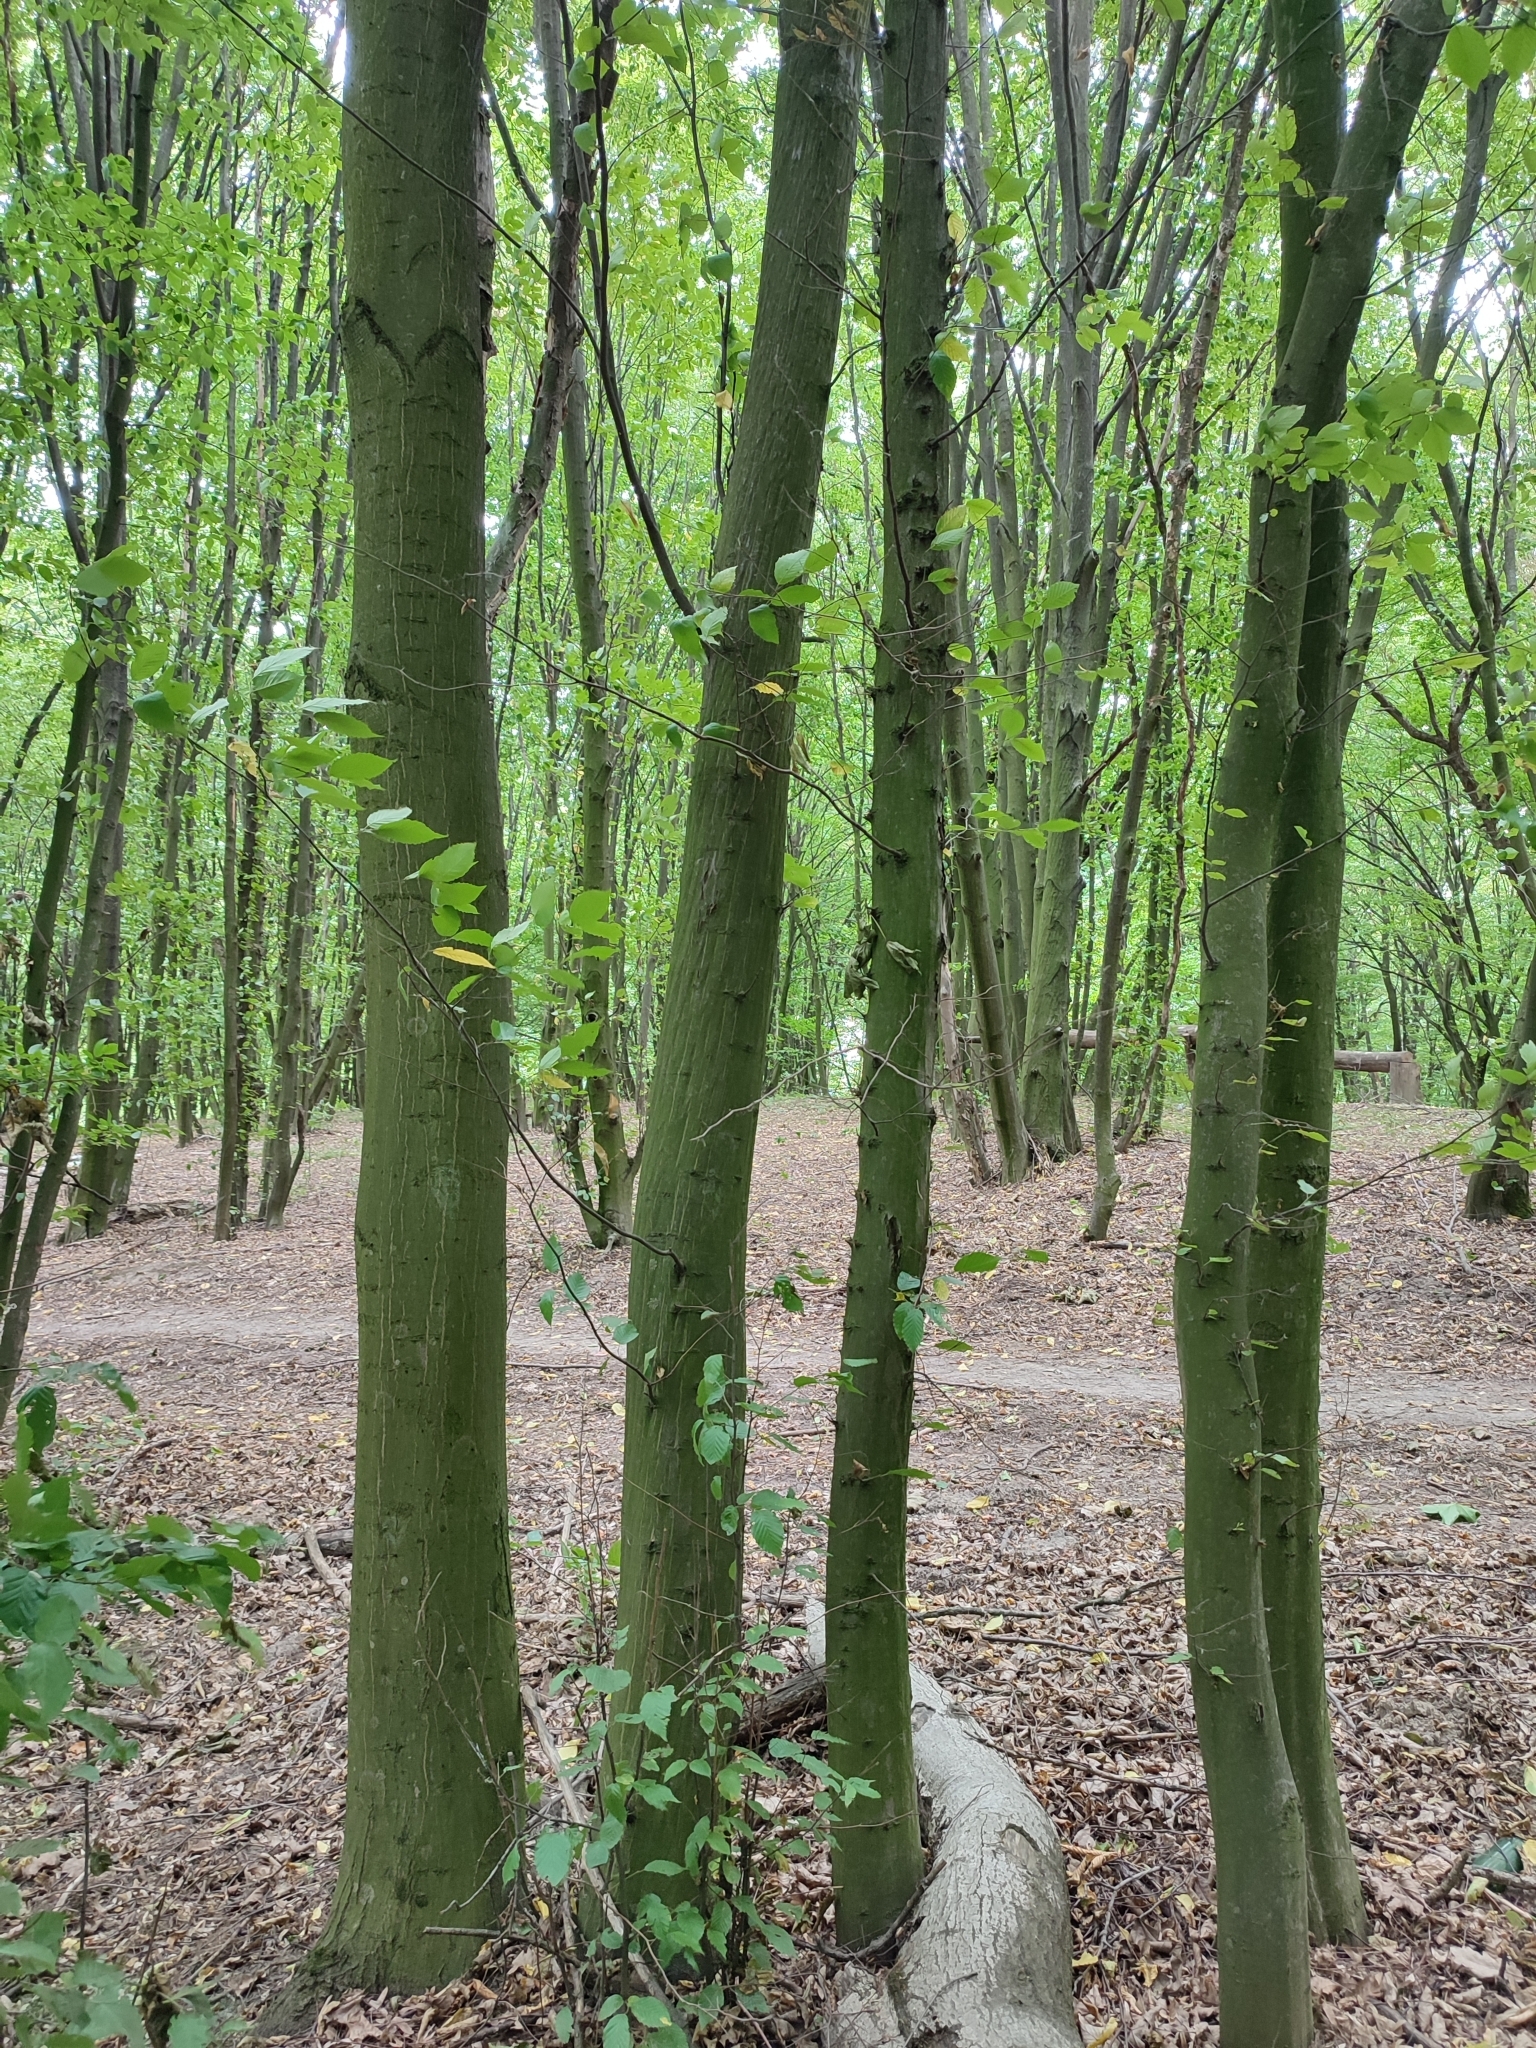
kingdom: Plantae
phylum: Tracheophyta
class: Magnoliopsida
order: Fagales
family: Betulaceae
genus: Carpinus
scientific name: Carpinus betulus
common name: Hornbeam
